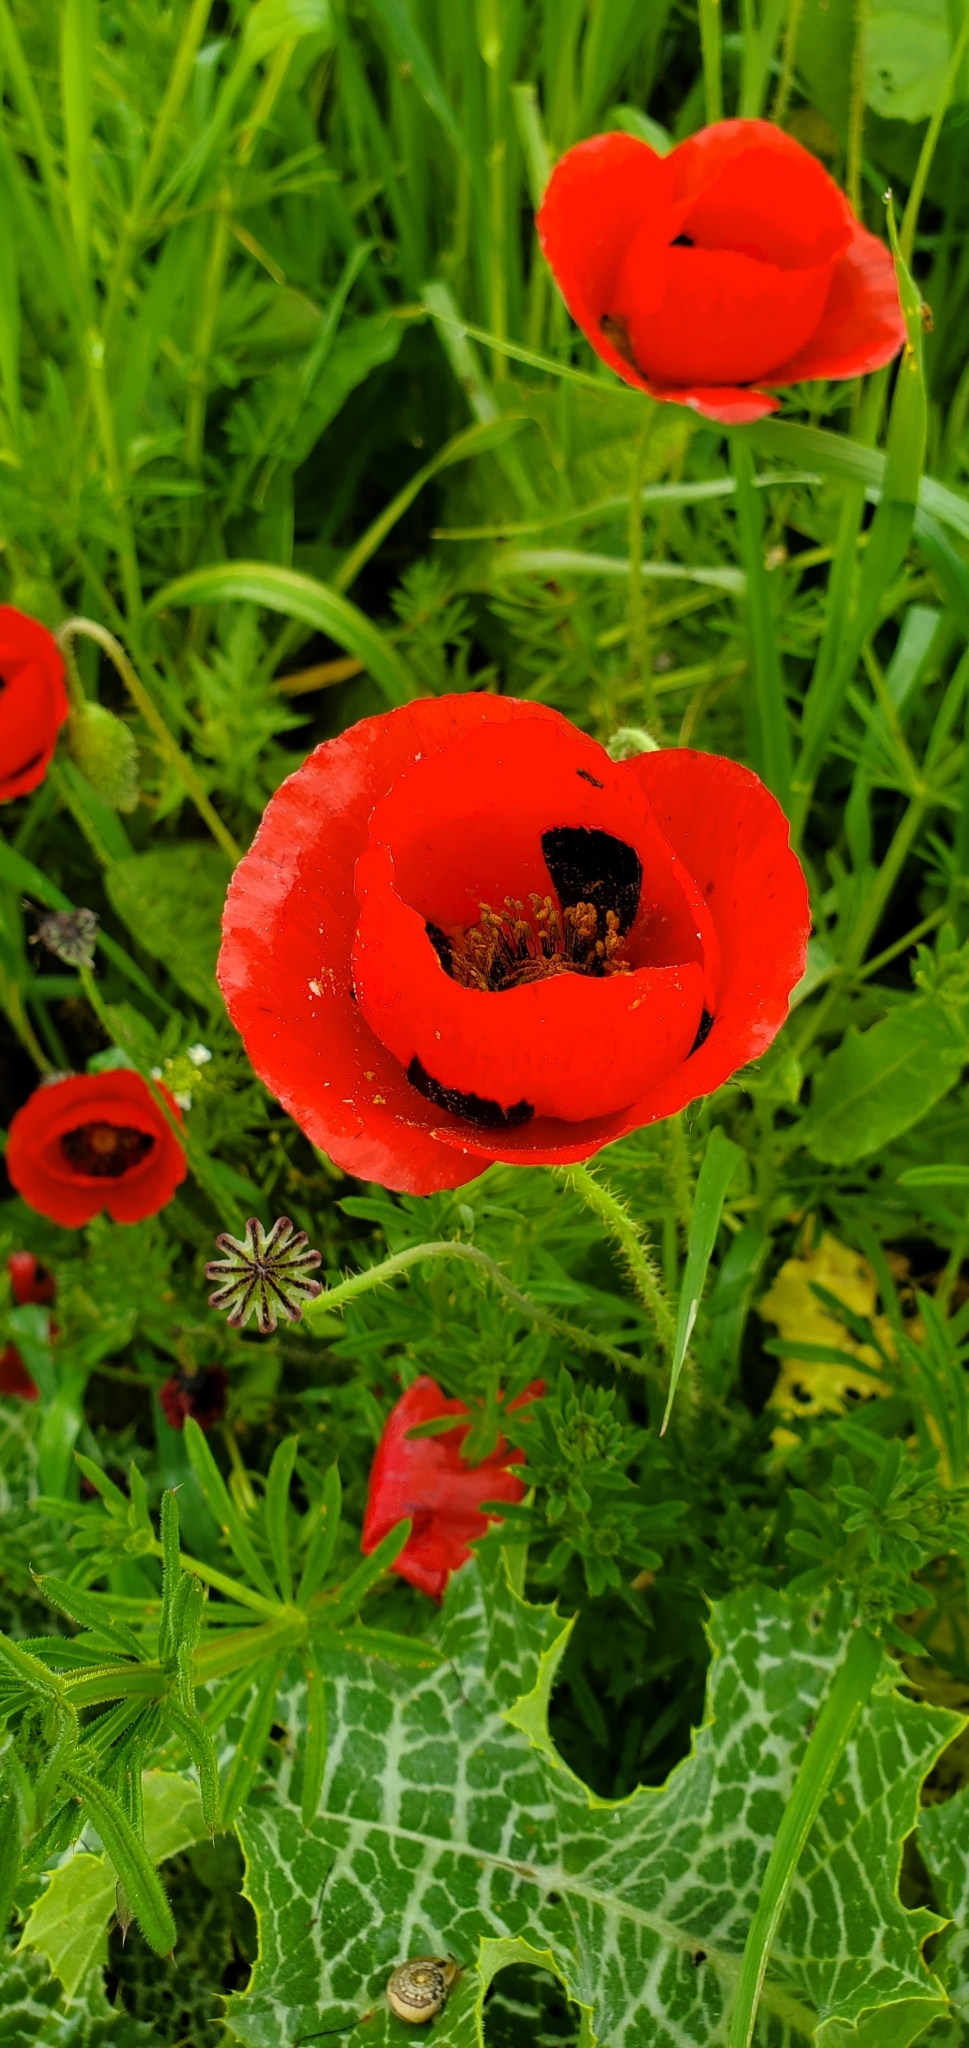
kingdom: Plantae
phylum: Tracheophyta
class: Magnoliopsida
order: Ranunculales
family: Papaveraceae
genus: Papaver
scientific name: Papaver umbonatum
